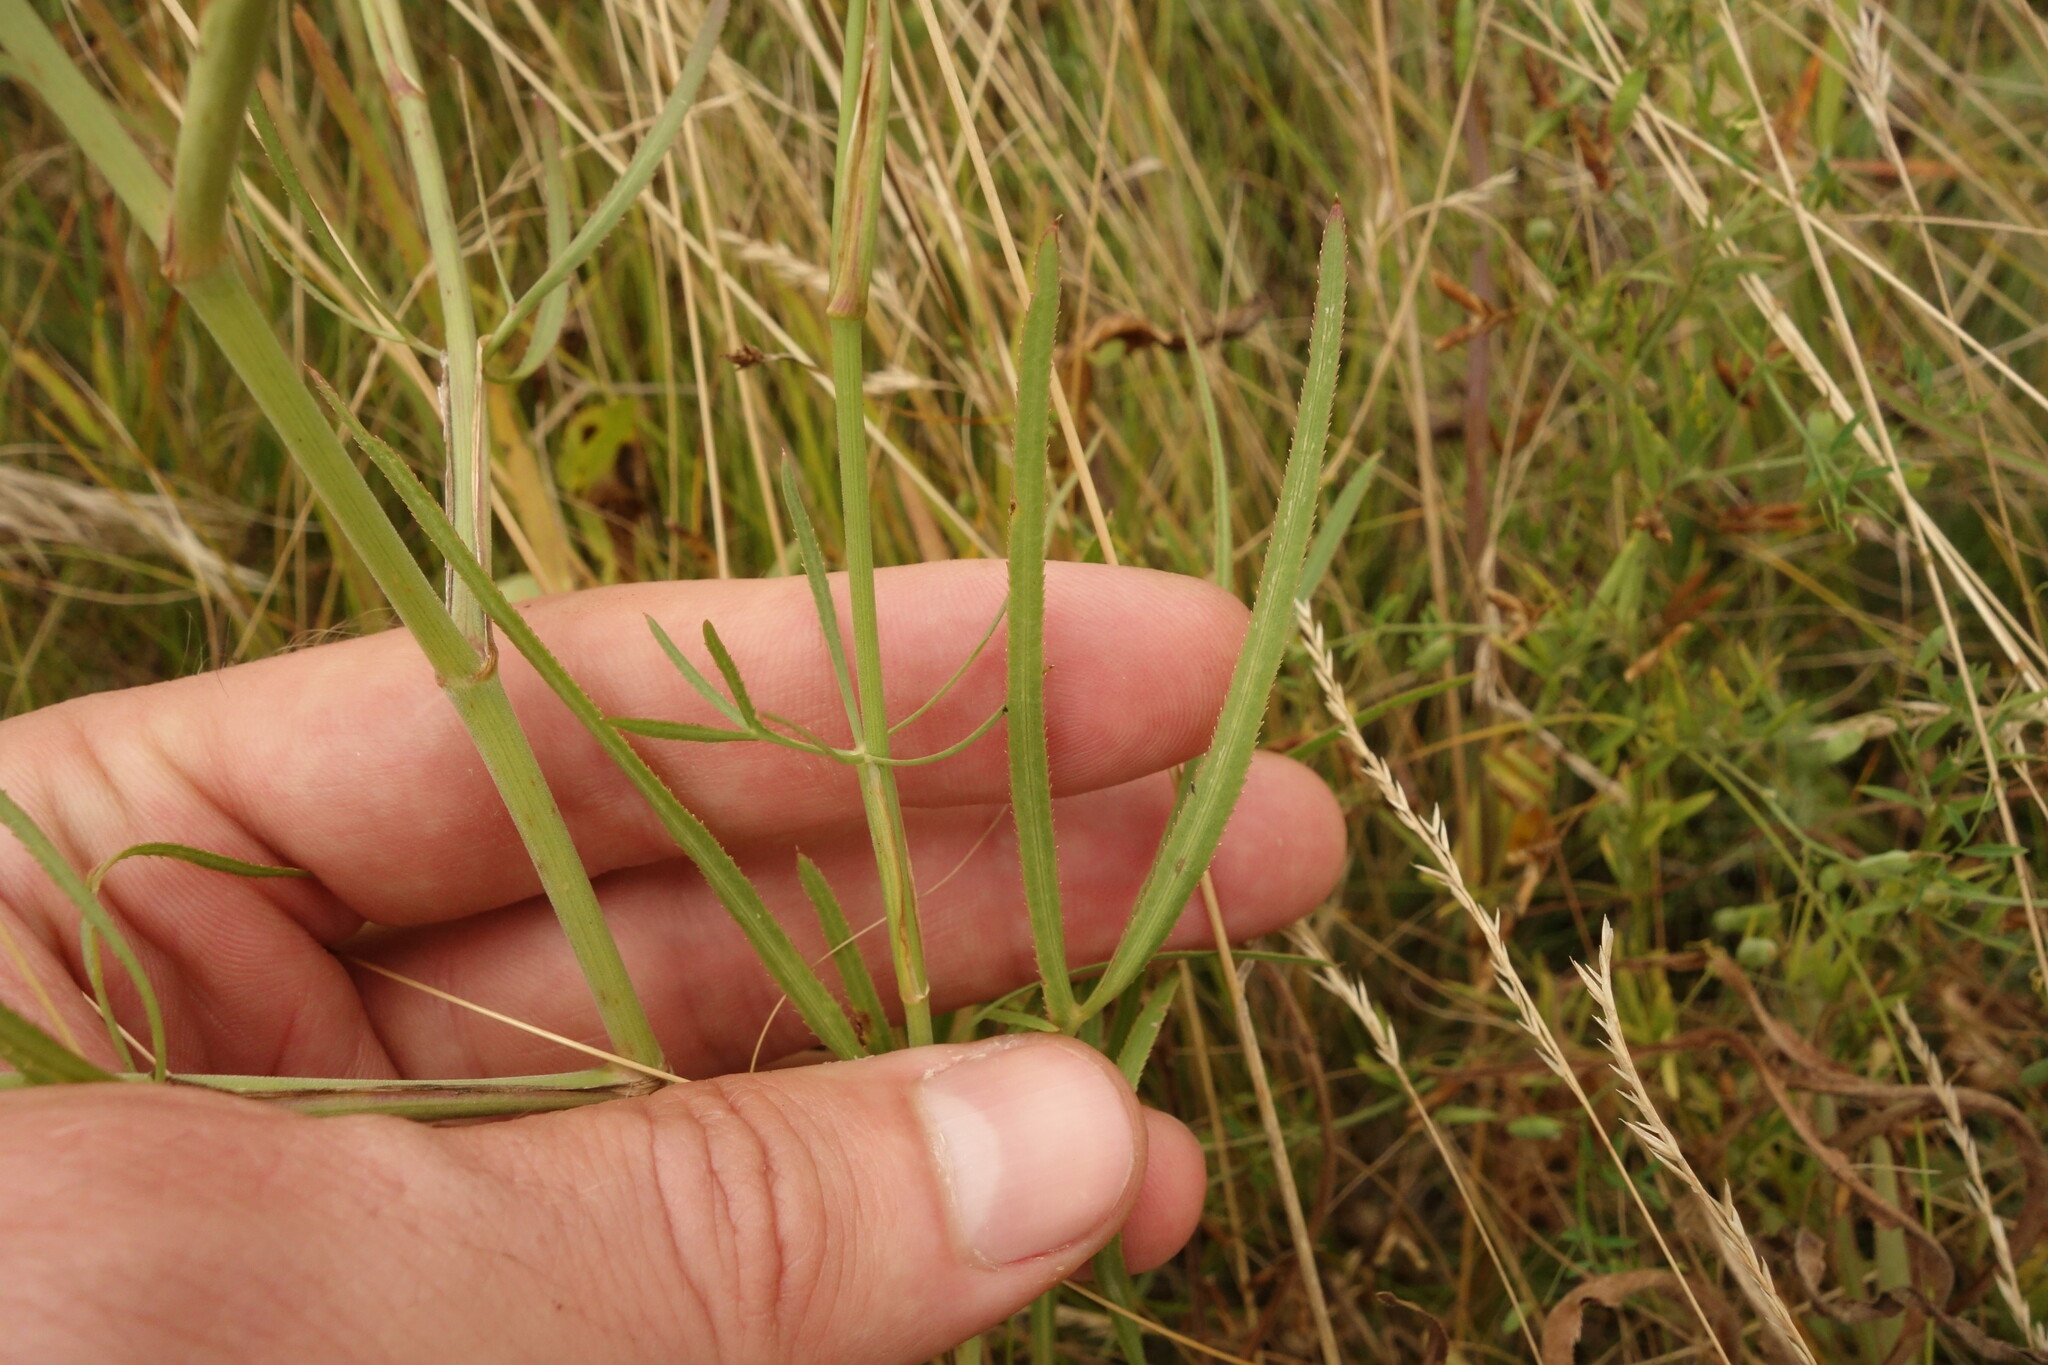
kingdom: Plantae
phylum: Tracheophyta
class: Magnoliopsida
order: Apiales
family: Apiaceae
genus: Falcaria
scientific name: Falcaria vulgaris
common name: Longleaf
